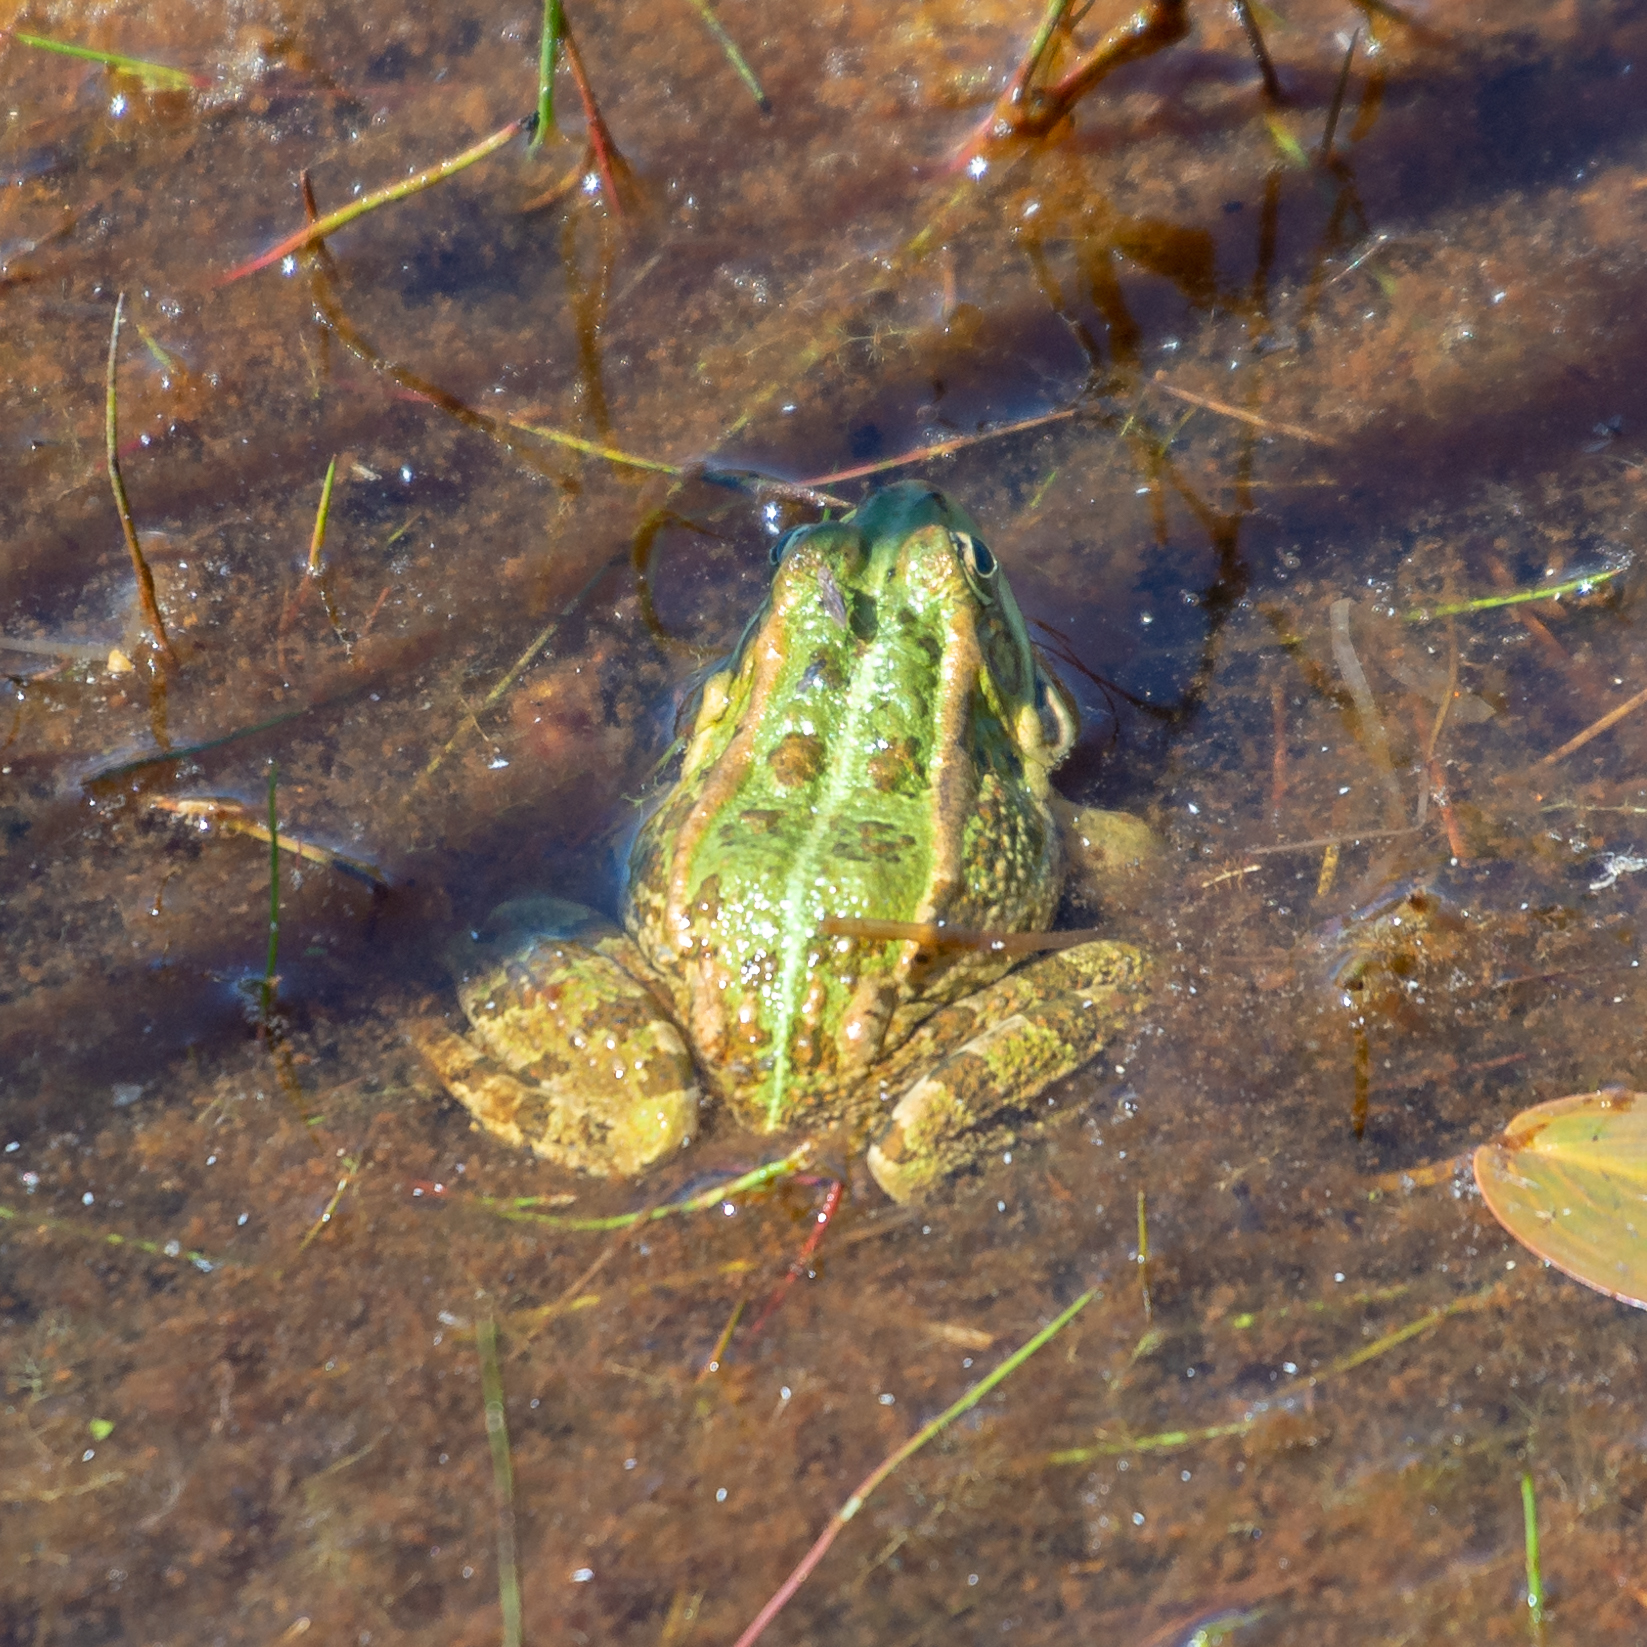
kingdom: Animalia
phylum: Chordata
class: Amphibia
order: Anura
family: Ranidae
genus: Pelophylax
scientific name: Pelophylax perezi
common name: Perez's frog
